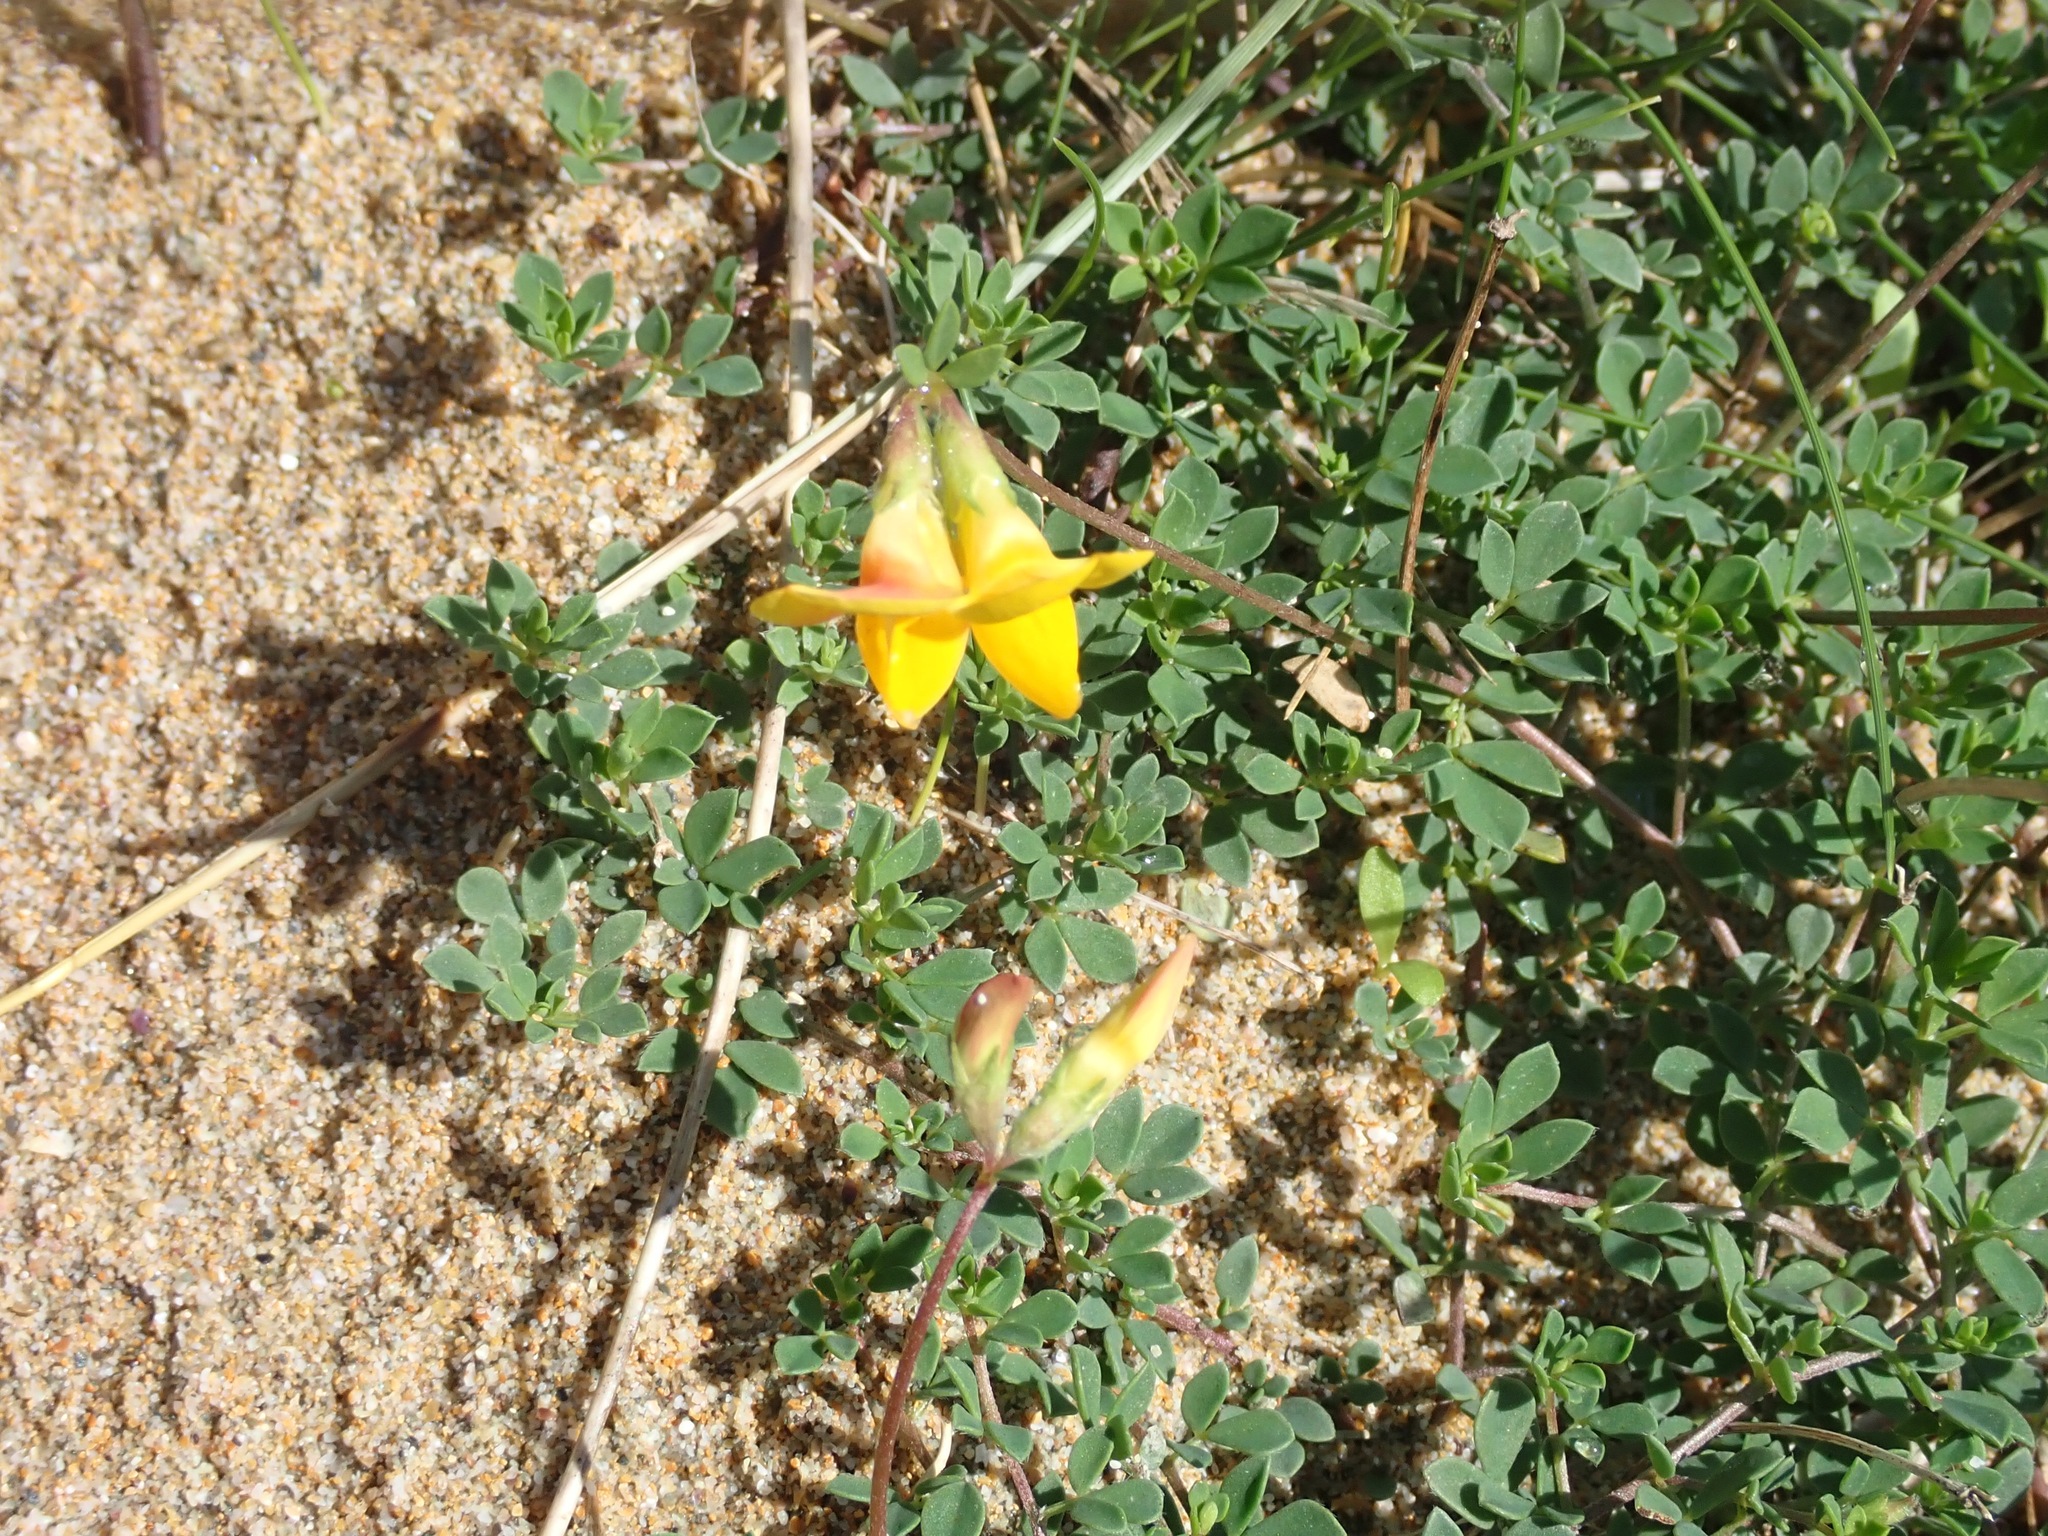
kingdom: Plantae
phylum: Tracheophyta
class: Magnoliopsida
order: Fabales
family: Fabaceae
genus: Lotus
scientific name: Lotus corniculatus
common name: Common bird's-foot-trefoil
